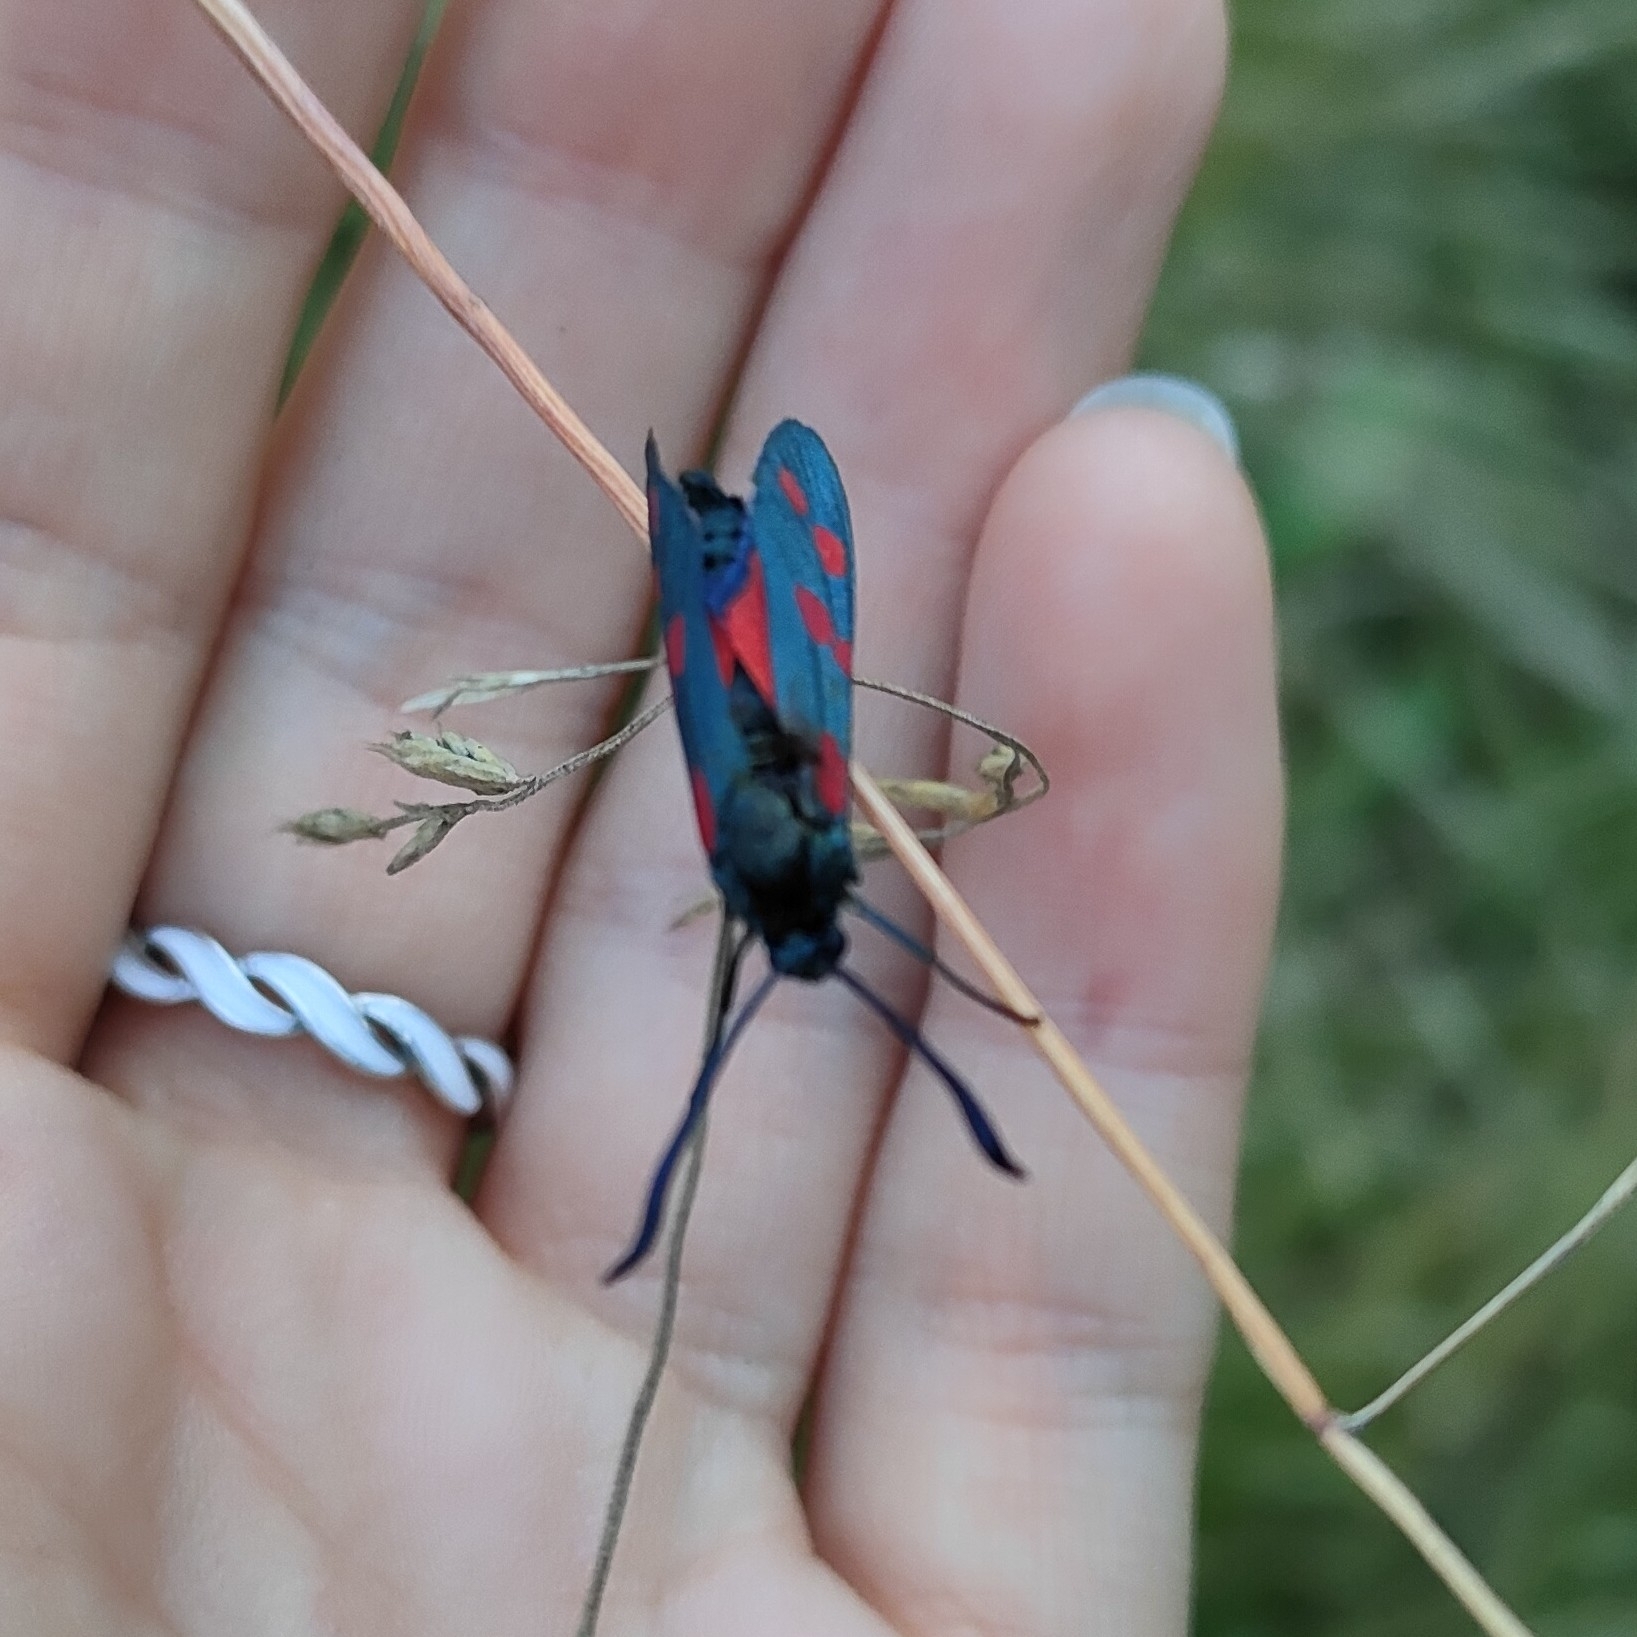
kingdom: Animalia
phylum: Arthropoda
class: Insecta
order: Lepidoptera
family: Zygaenidae
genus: Zygaena
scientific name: Zygaena filipendulae
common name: Six-spot burnet
